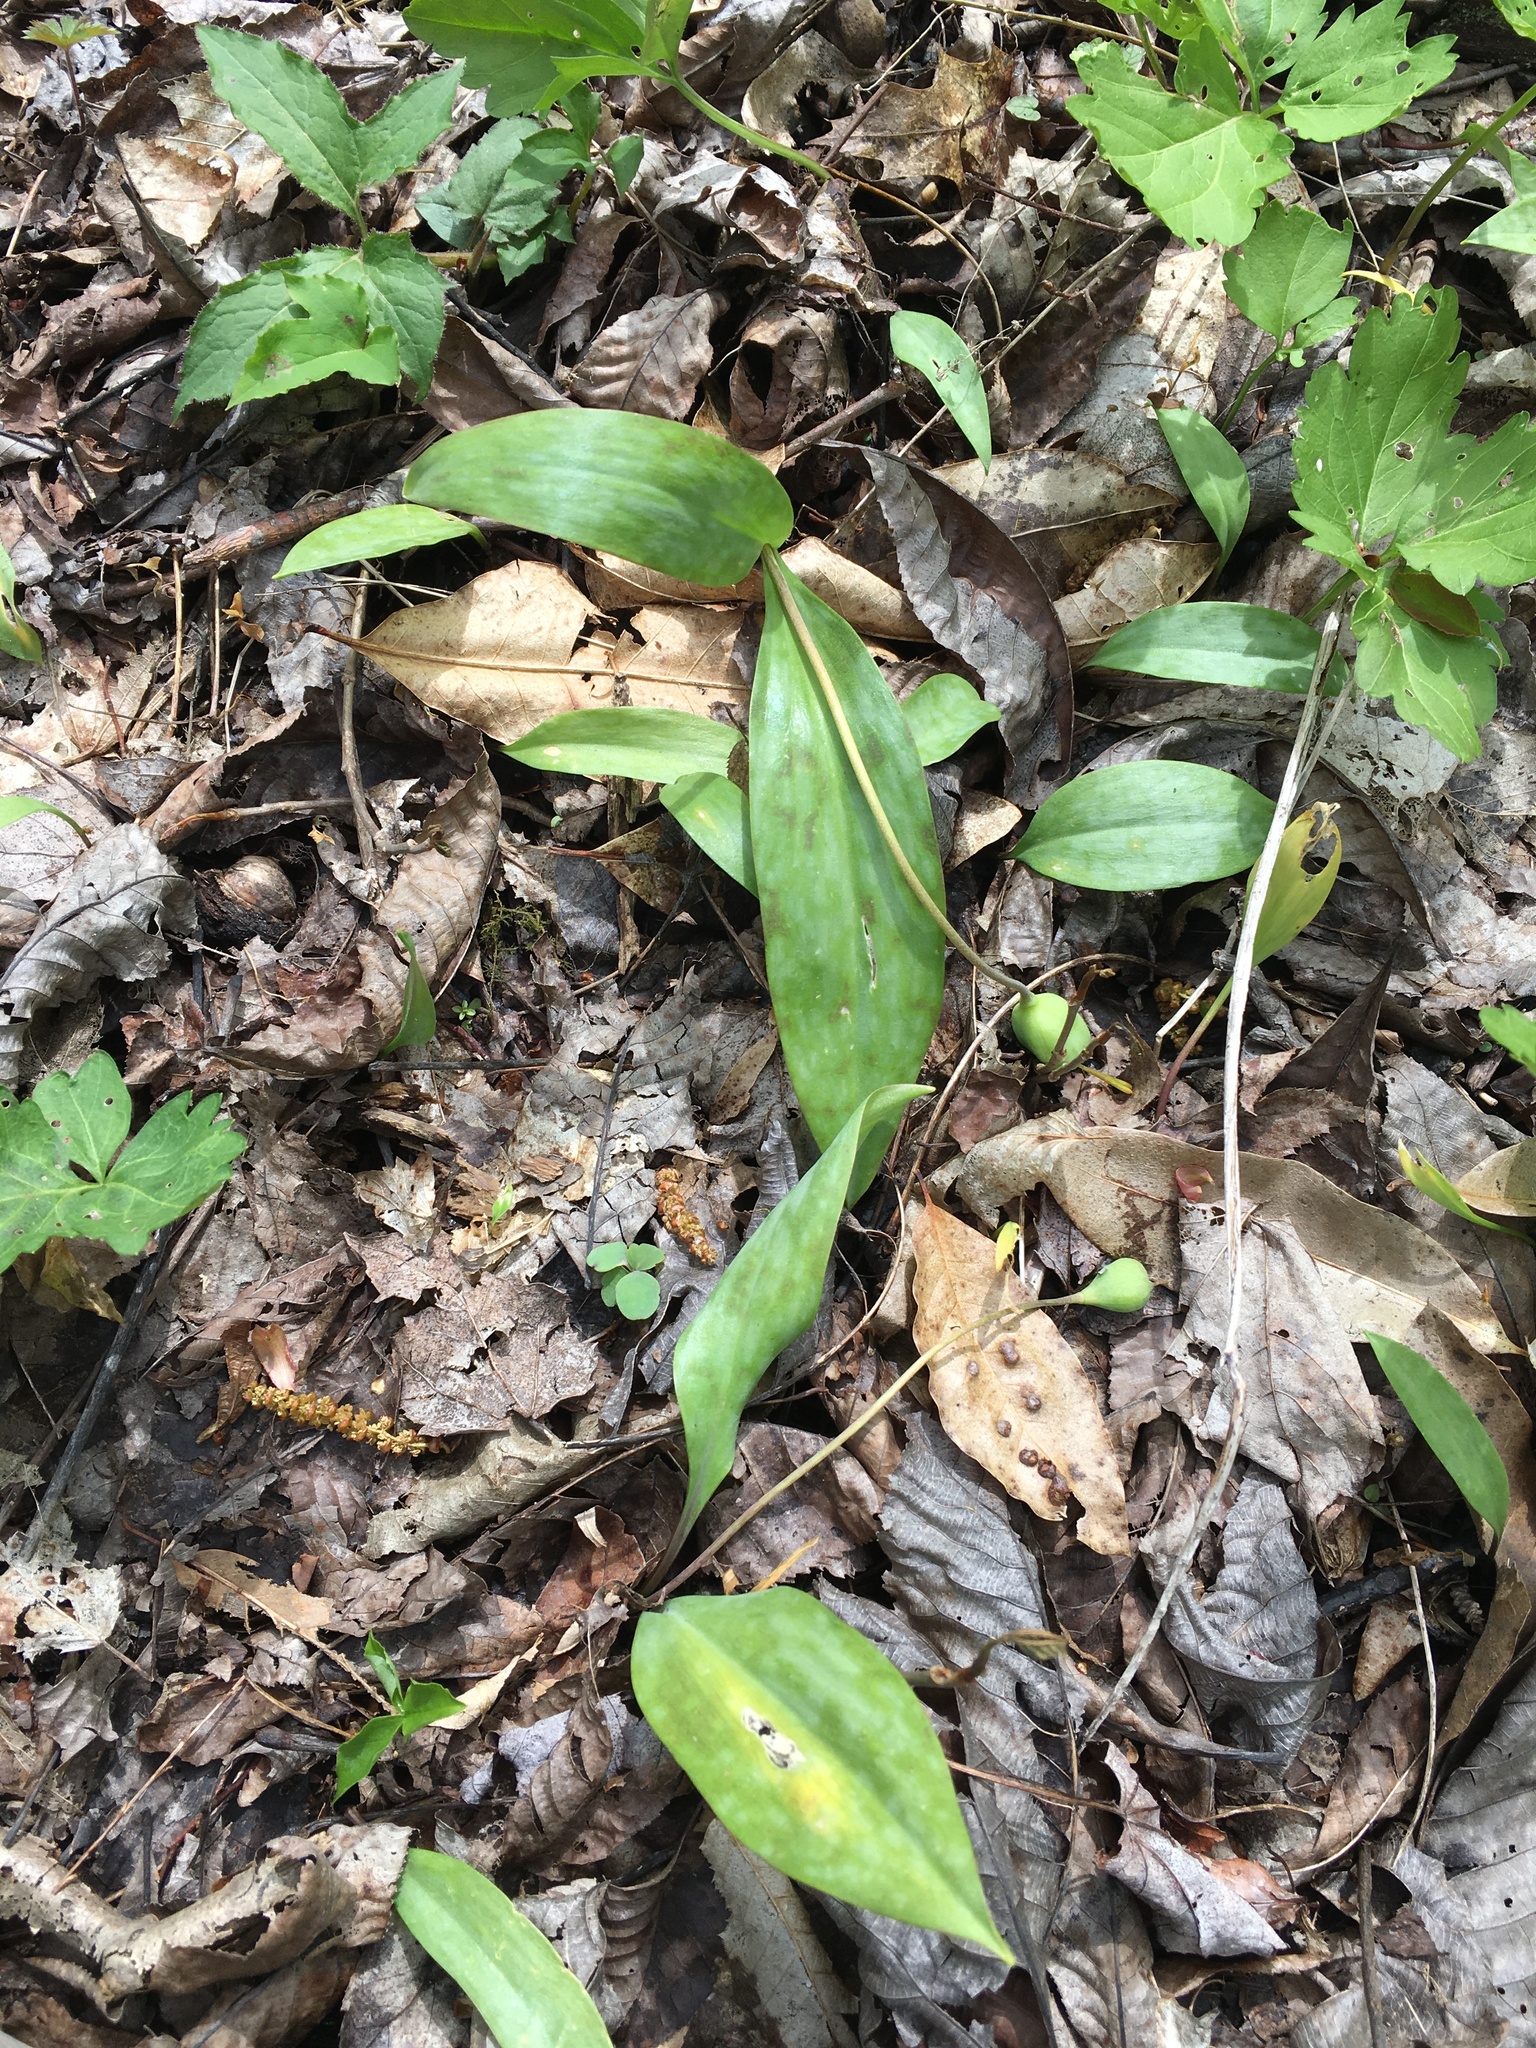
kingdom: Plantae
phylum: Tracheophyta
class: Liliopsida
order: Liliales
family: Liliaceae
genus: Erythronium
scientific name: Erythronium americanum
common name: Yellow adder's-tongue
